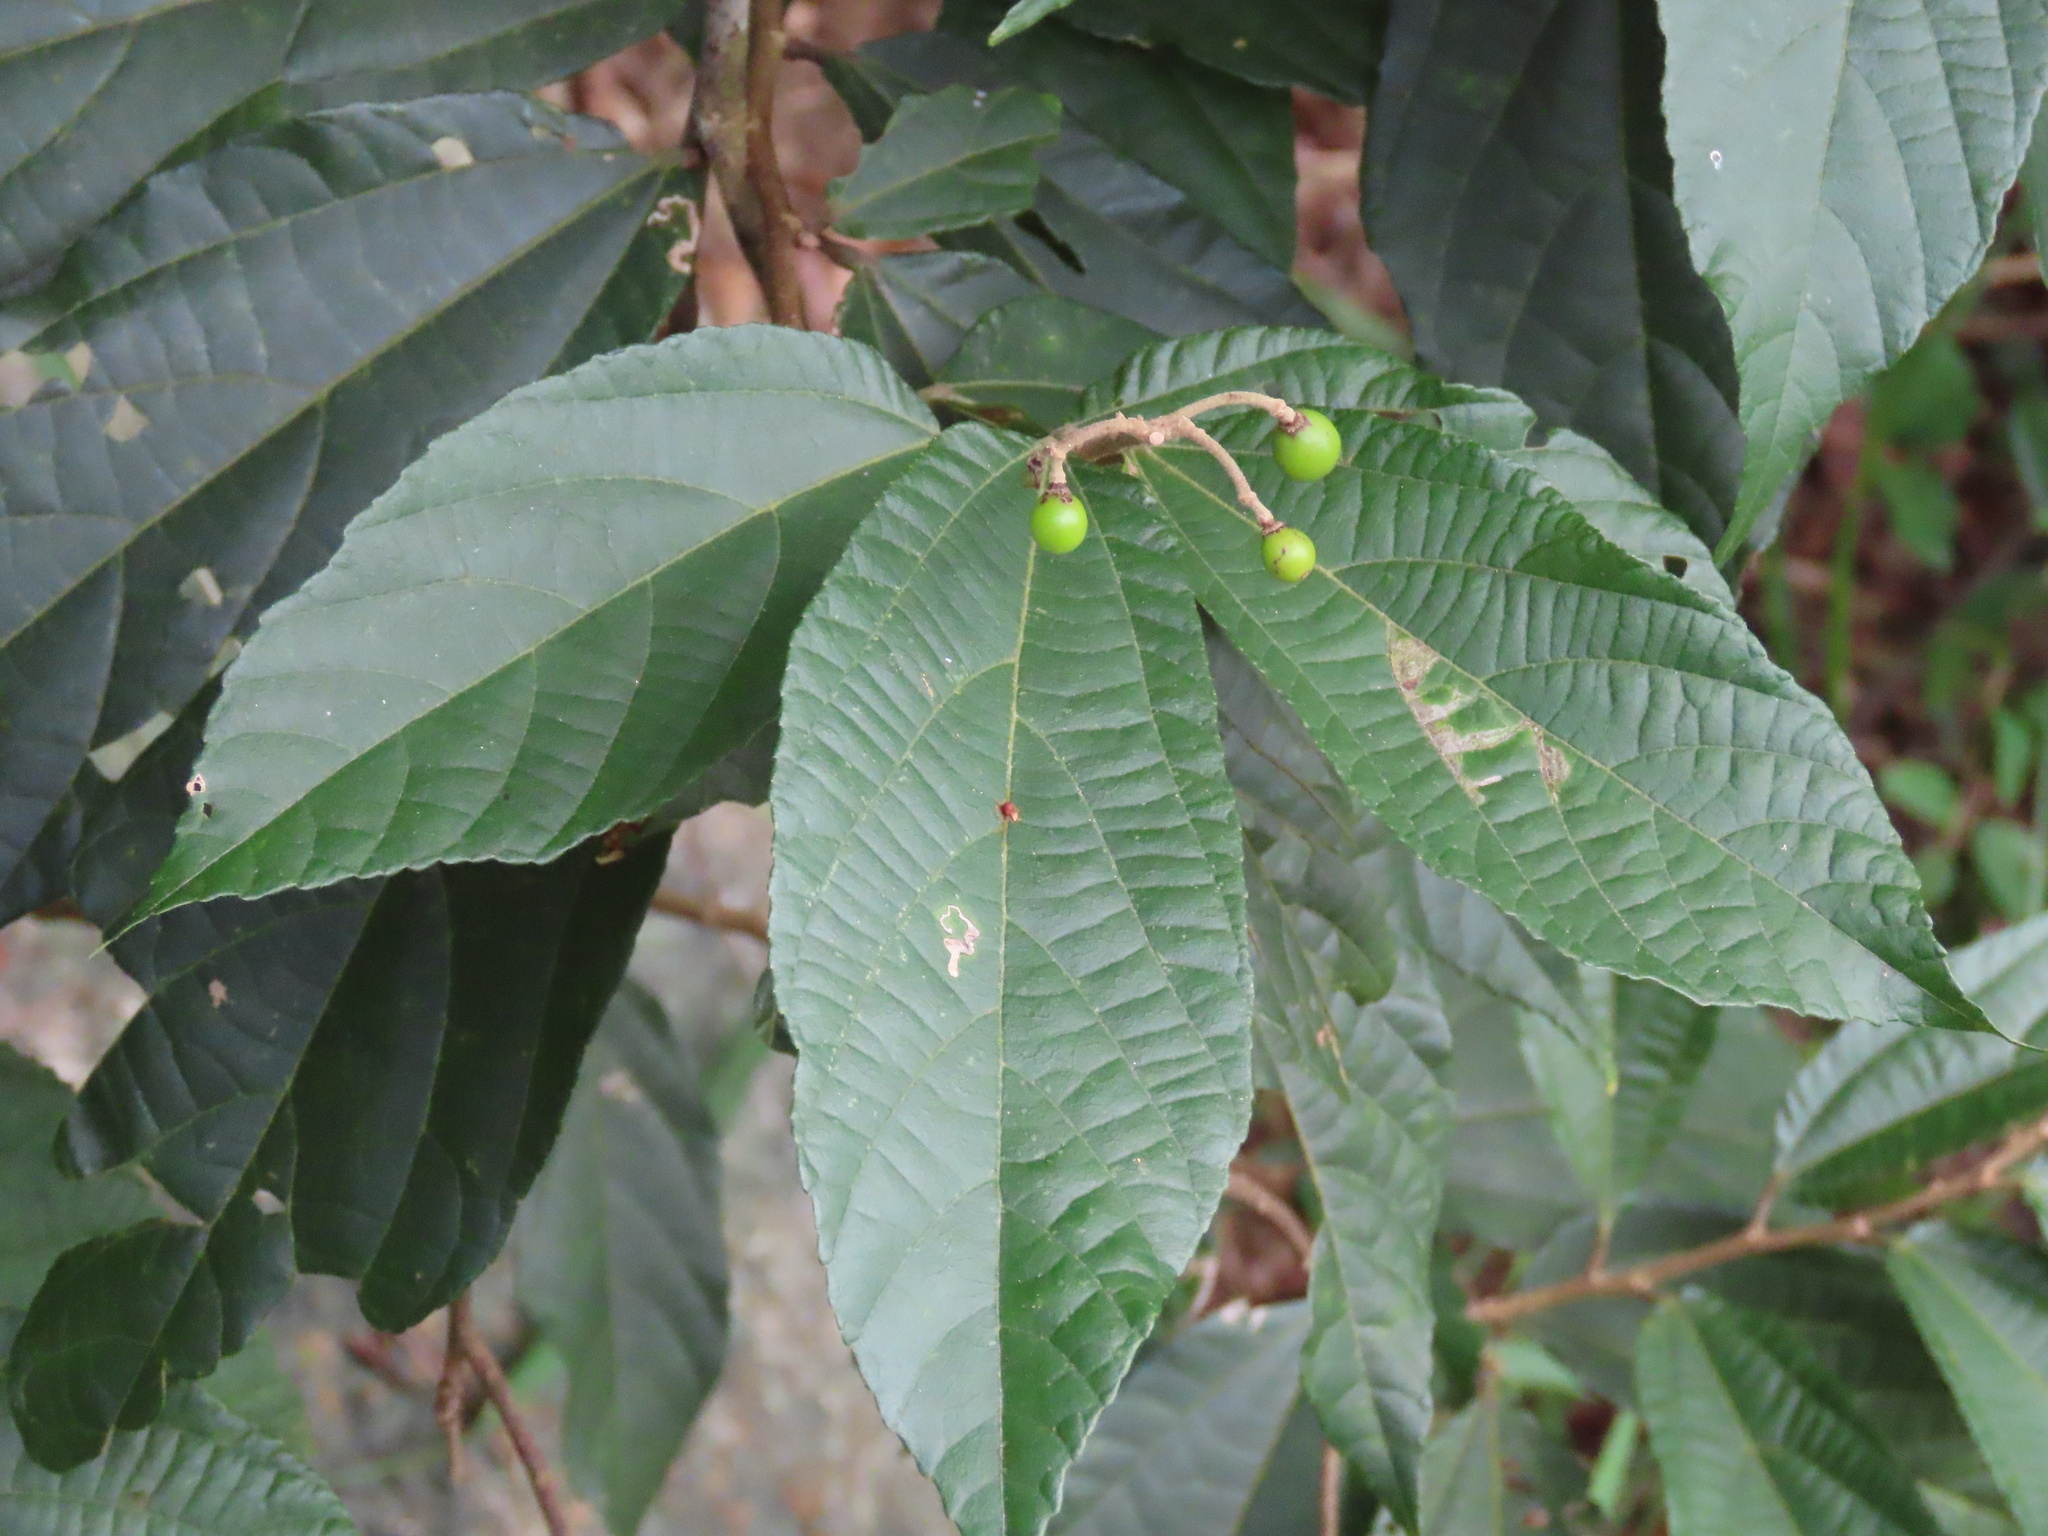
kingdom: Plantae
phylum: Tracheophyta
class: Magnoliopsida
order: Malvales
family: Malvaceae
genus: Microcos
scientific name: Microcos paniculata
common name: Microcos
